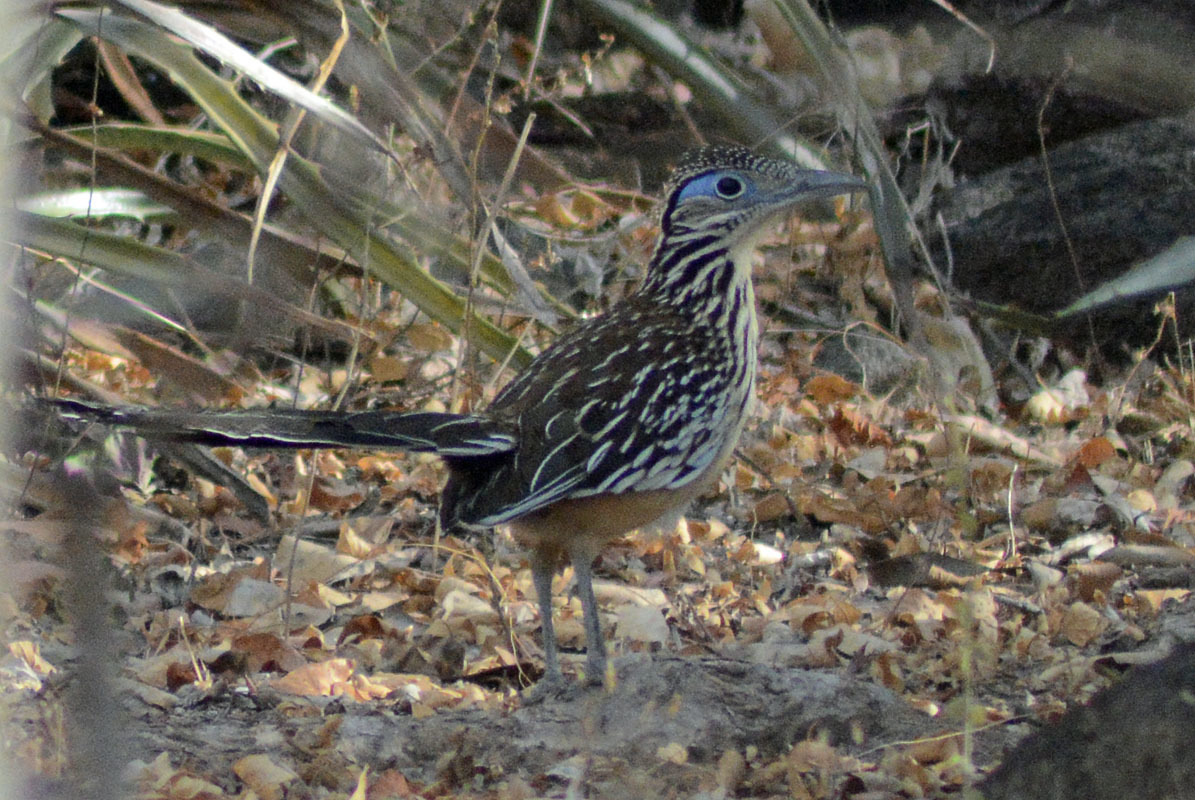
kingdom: Animalia
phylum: Chordata
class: Aves
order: Cuculiformes
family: Cuculidae
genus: Geococcyx
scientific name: Geococcyx velox
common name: Lesser roadrunner
